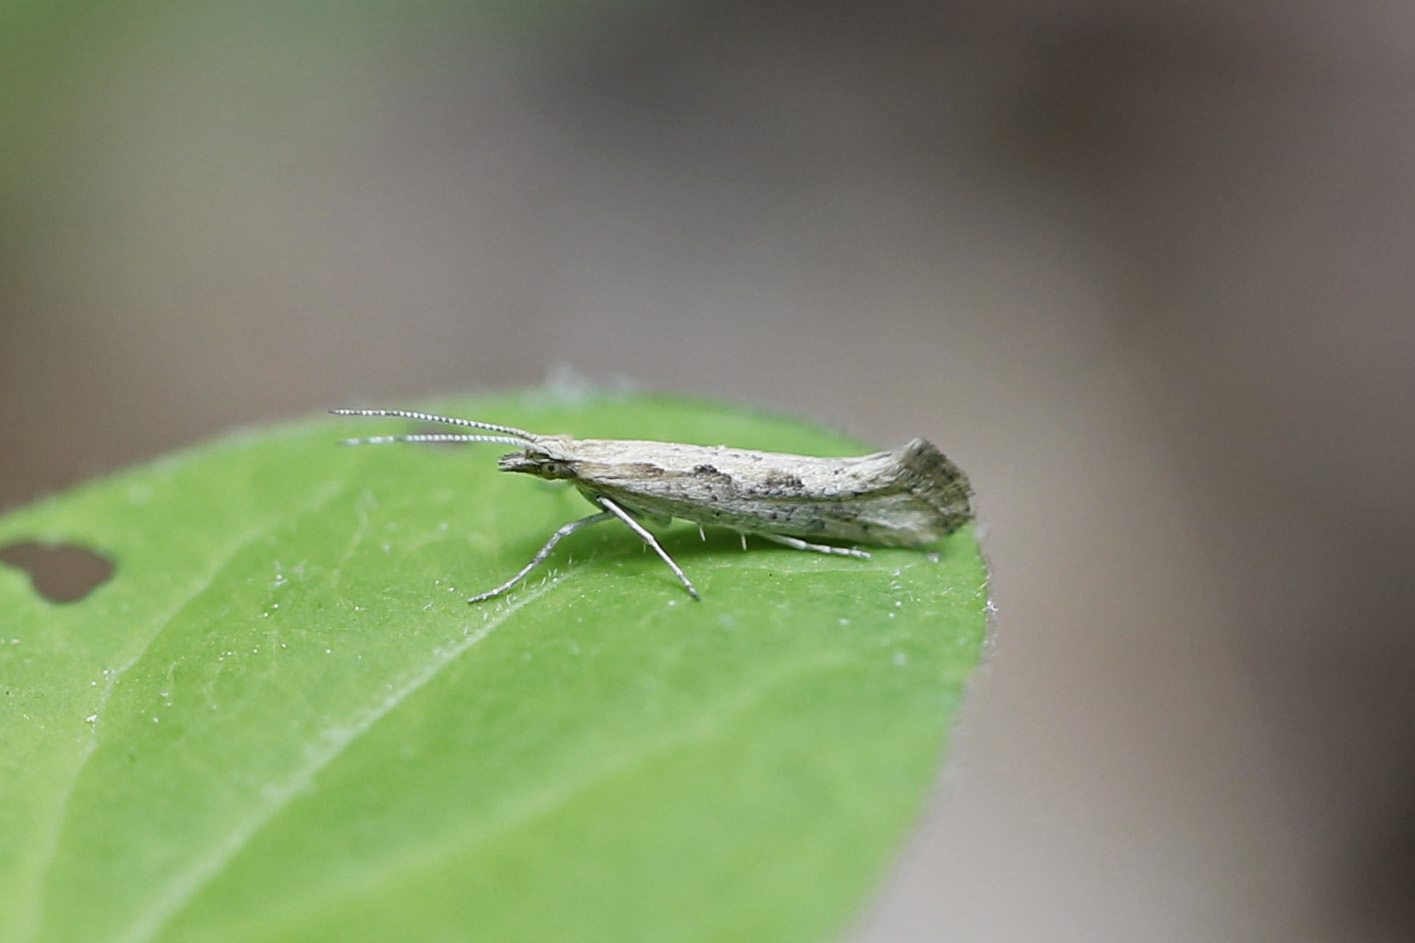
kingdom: Animalia
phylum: Arthropoda
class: Insecta
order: Lepidoptera
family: Plutellidae
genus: Plutella
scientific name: Plutella xylostella
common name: Diamond-back moth
